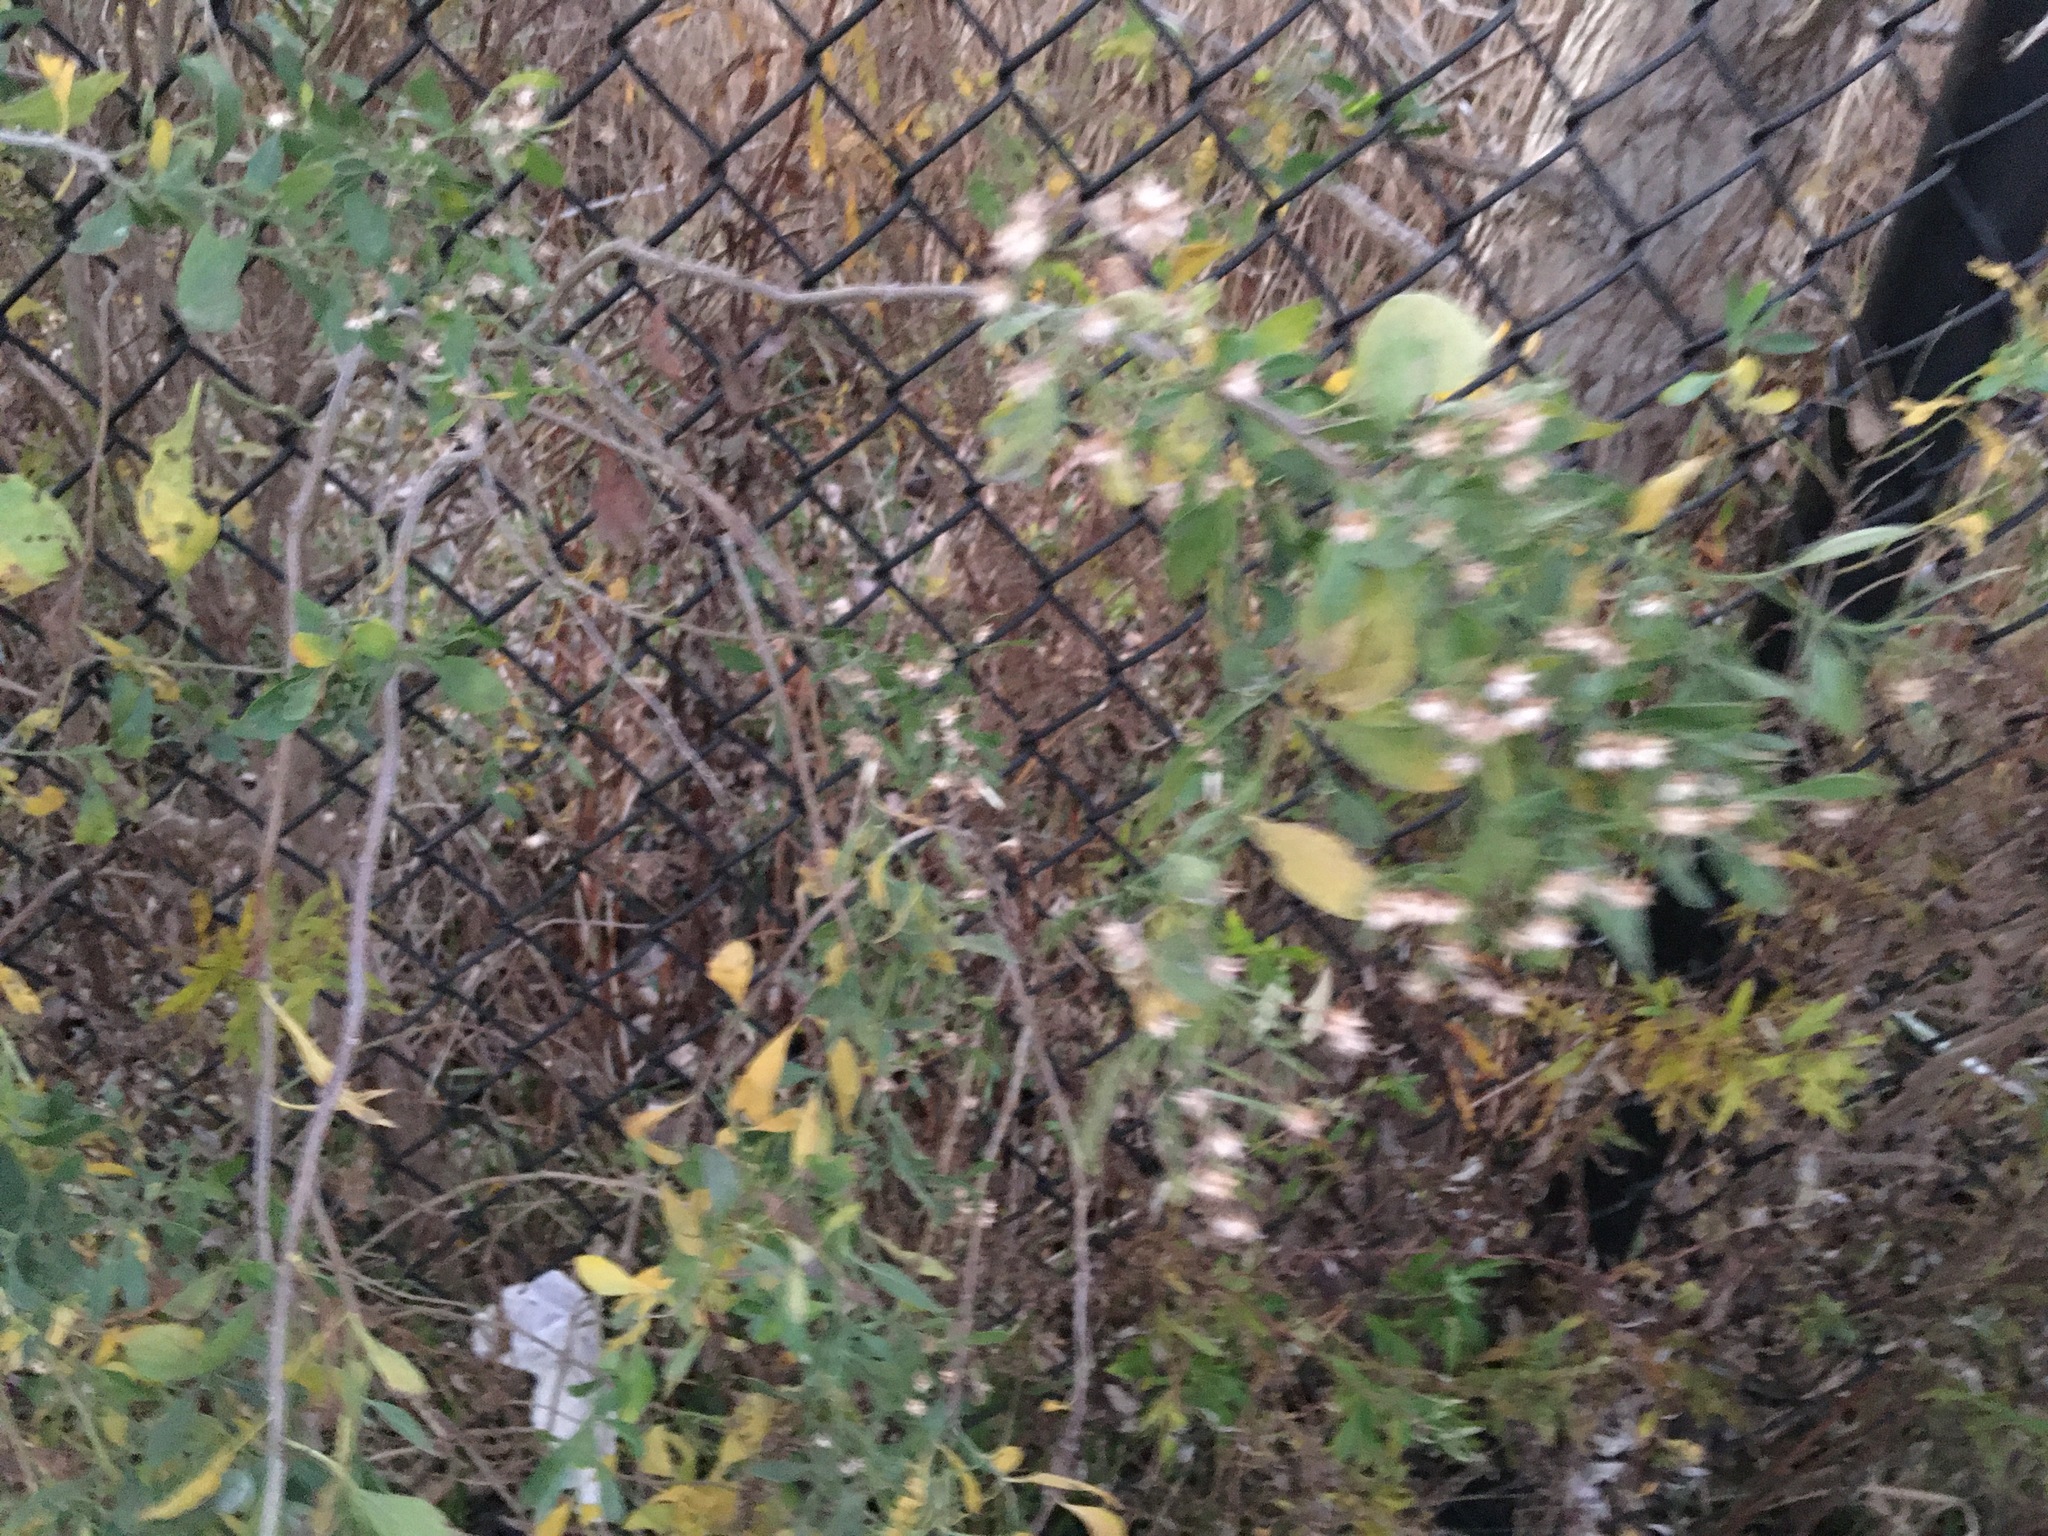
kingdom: Plantae
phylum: Tracheophyta
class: Magnoliopsida
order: Asterales
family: Asteraceae
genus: Baccharis
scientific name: Baccharis halimifolia
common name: Eastern baccharis
